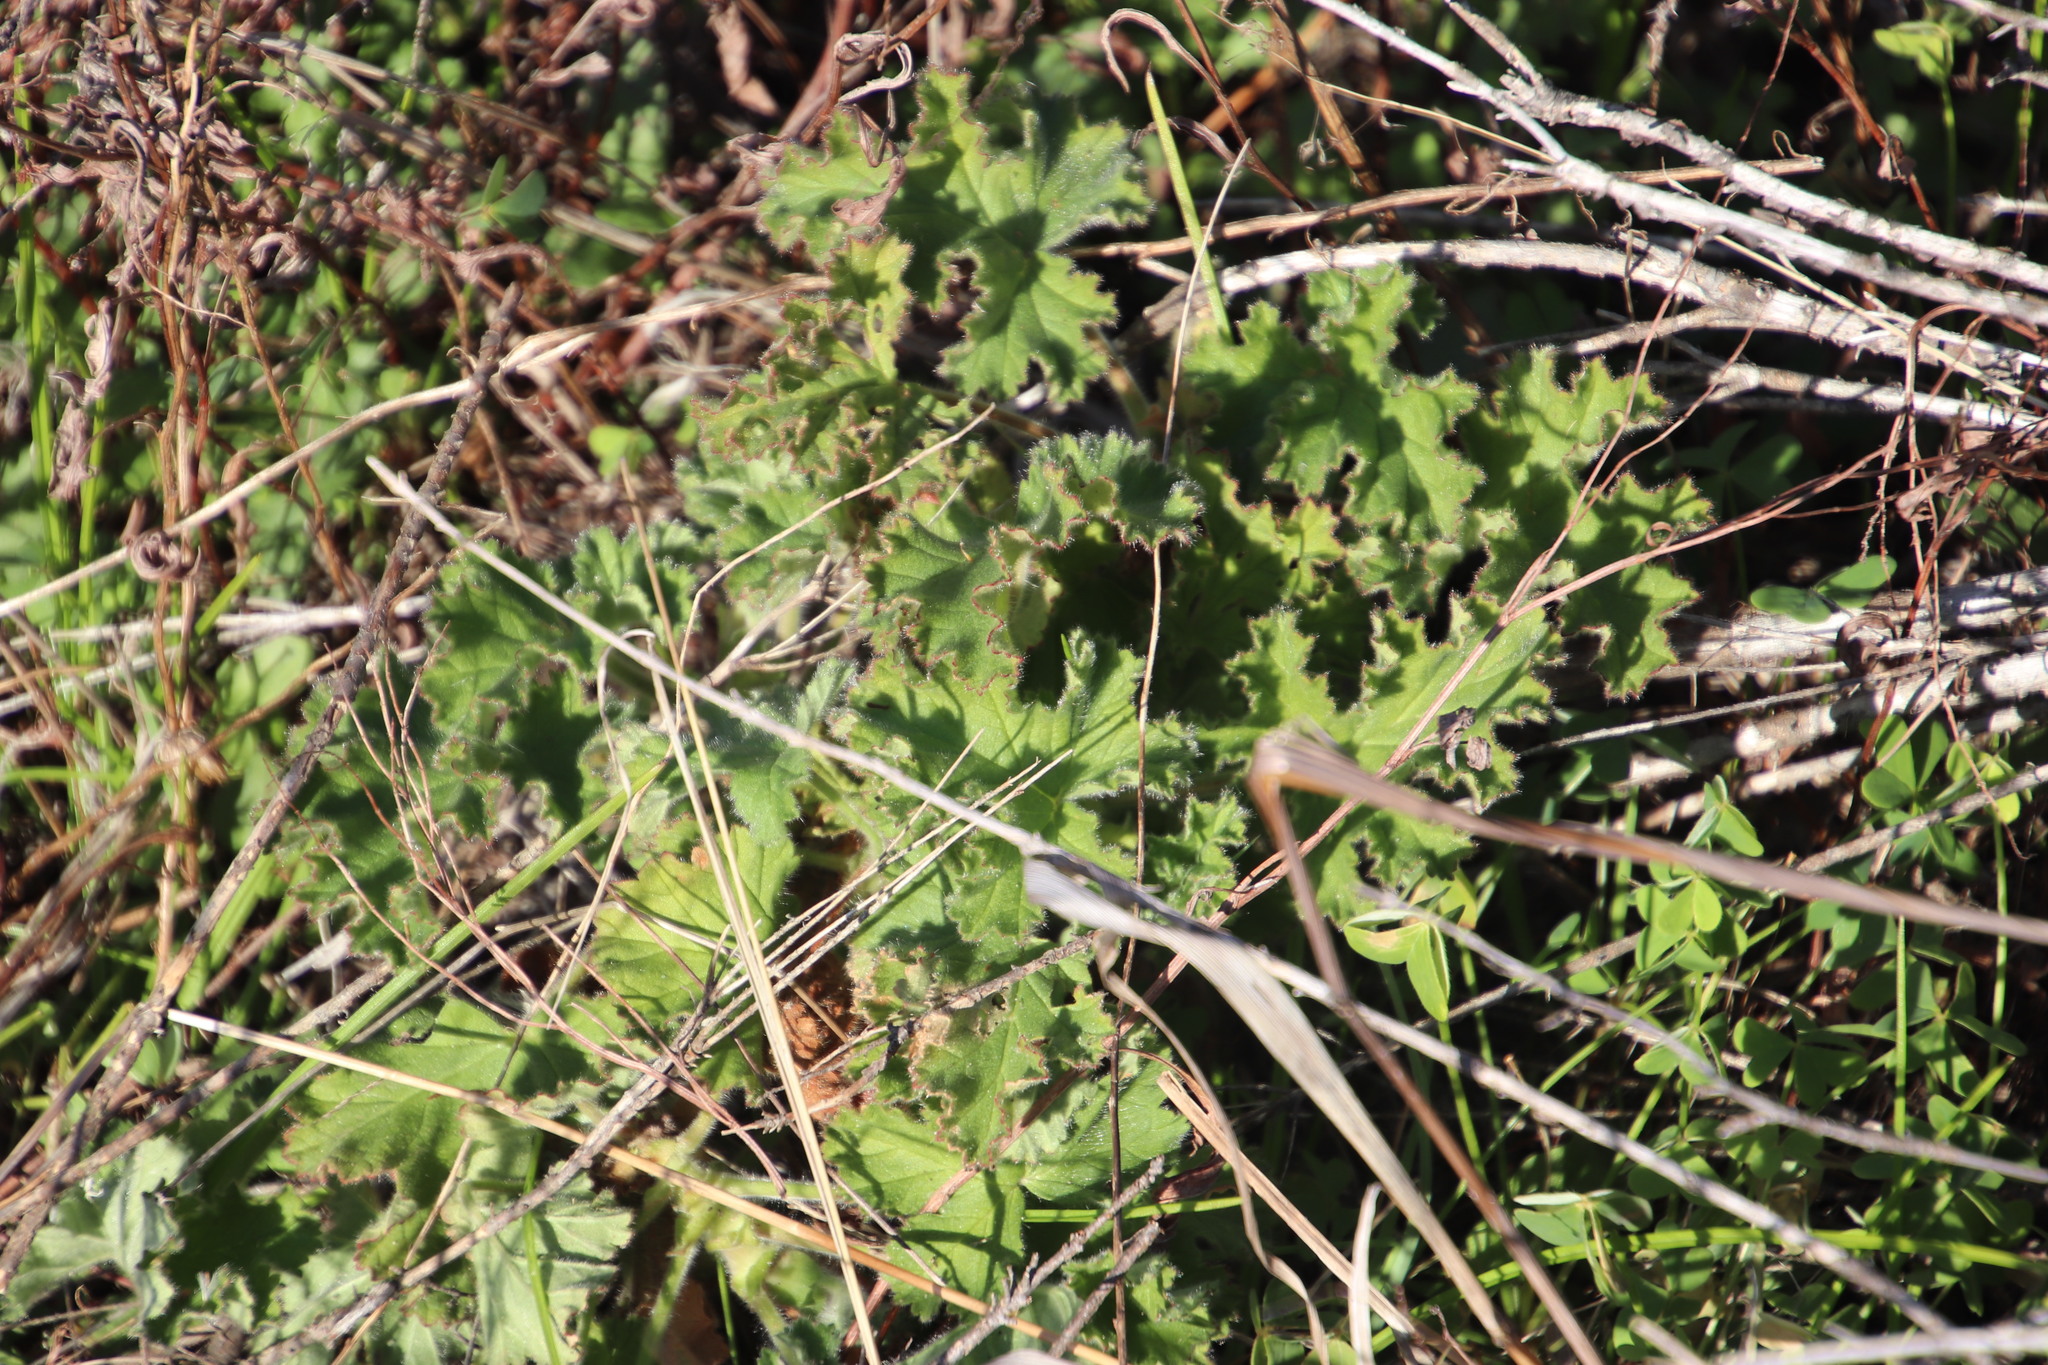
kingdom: Plantae
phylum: Tracheophyta
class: Magnoliopsida
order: Geraniales
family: Geraniaceae
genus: Pelargonium
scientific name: Pelargonium capitatum
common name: Rose scented geranium
